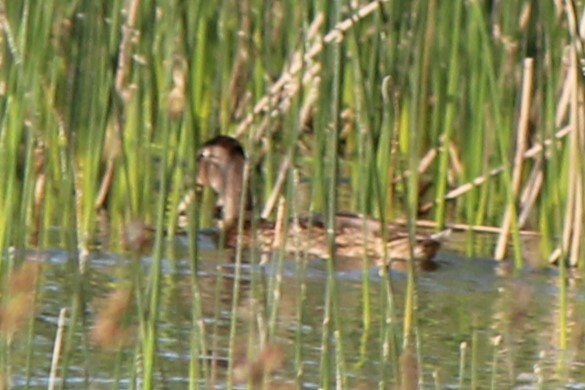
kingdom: Animalia
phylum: Chordata
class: Aves
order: Anseriformes
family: Anatidae
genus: Anas
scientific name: Anas platyrhynchos
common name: Mallard
